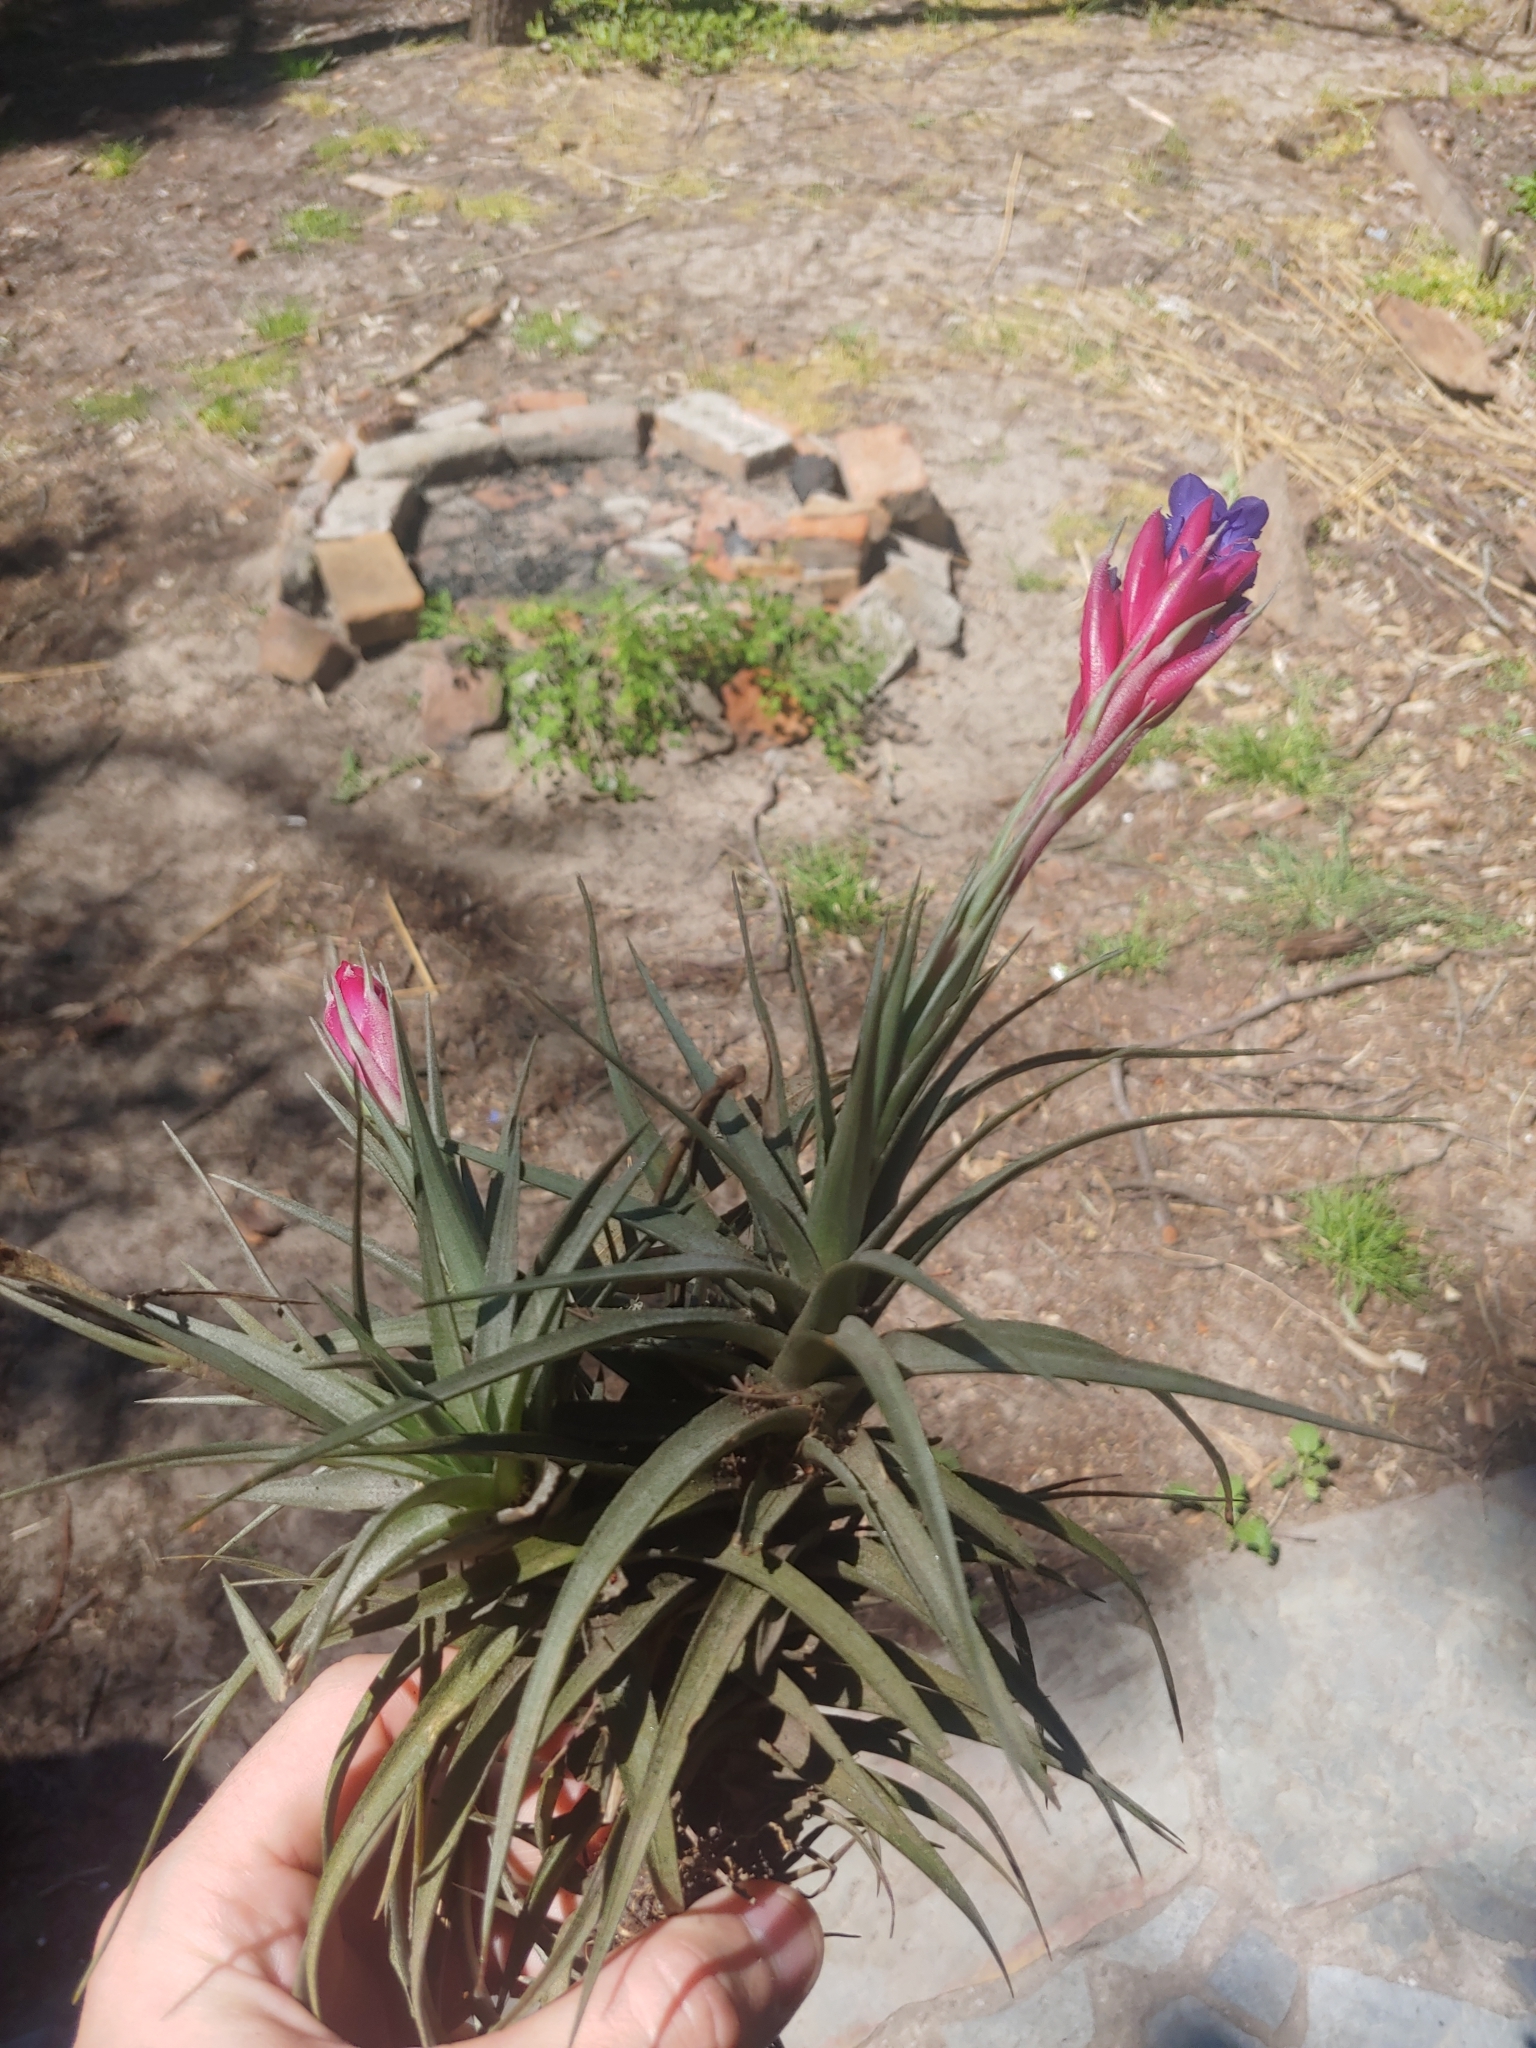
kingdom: Plantae
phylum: Tracheophyta
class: Liliopsida
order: Poales
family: Bromeliaceae
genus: Tillandsia
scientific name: Tillandsia aeranthos
